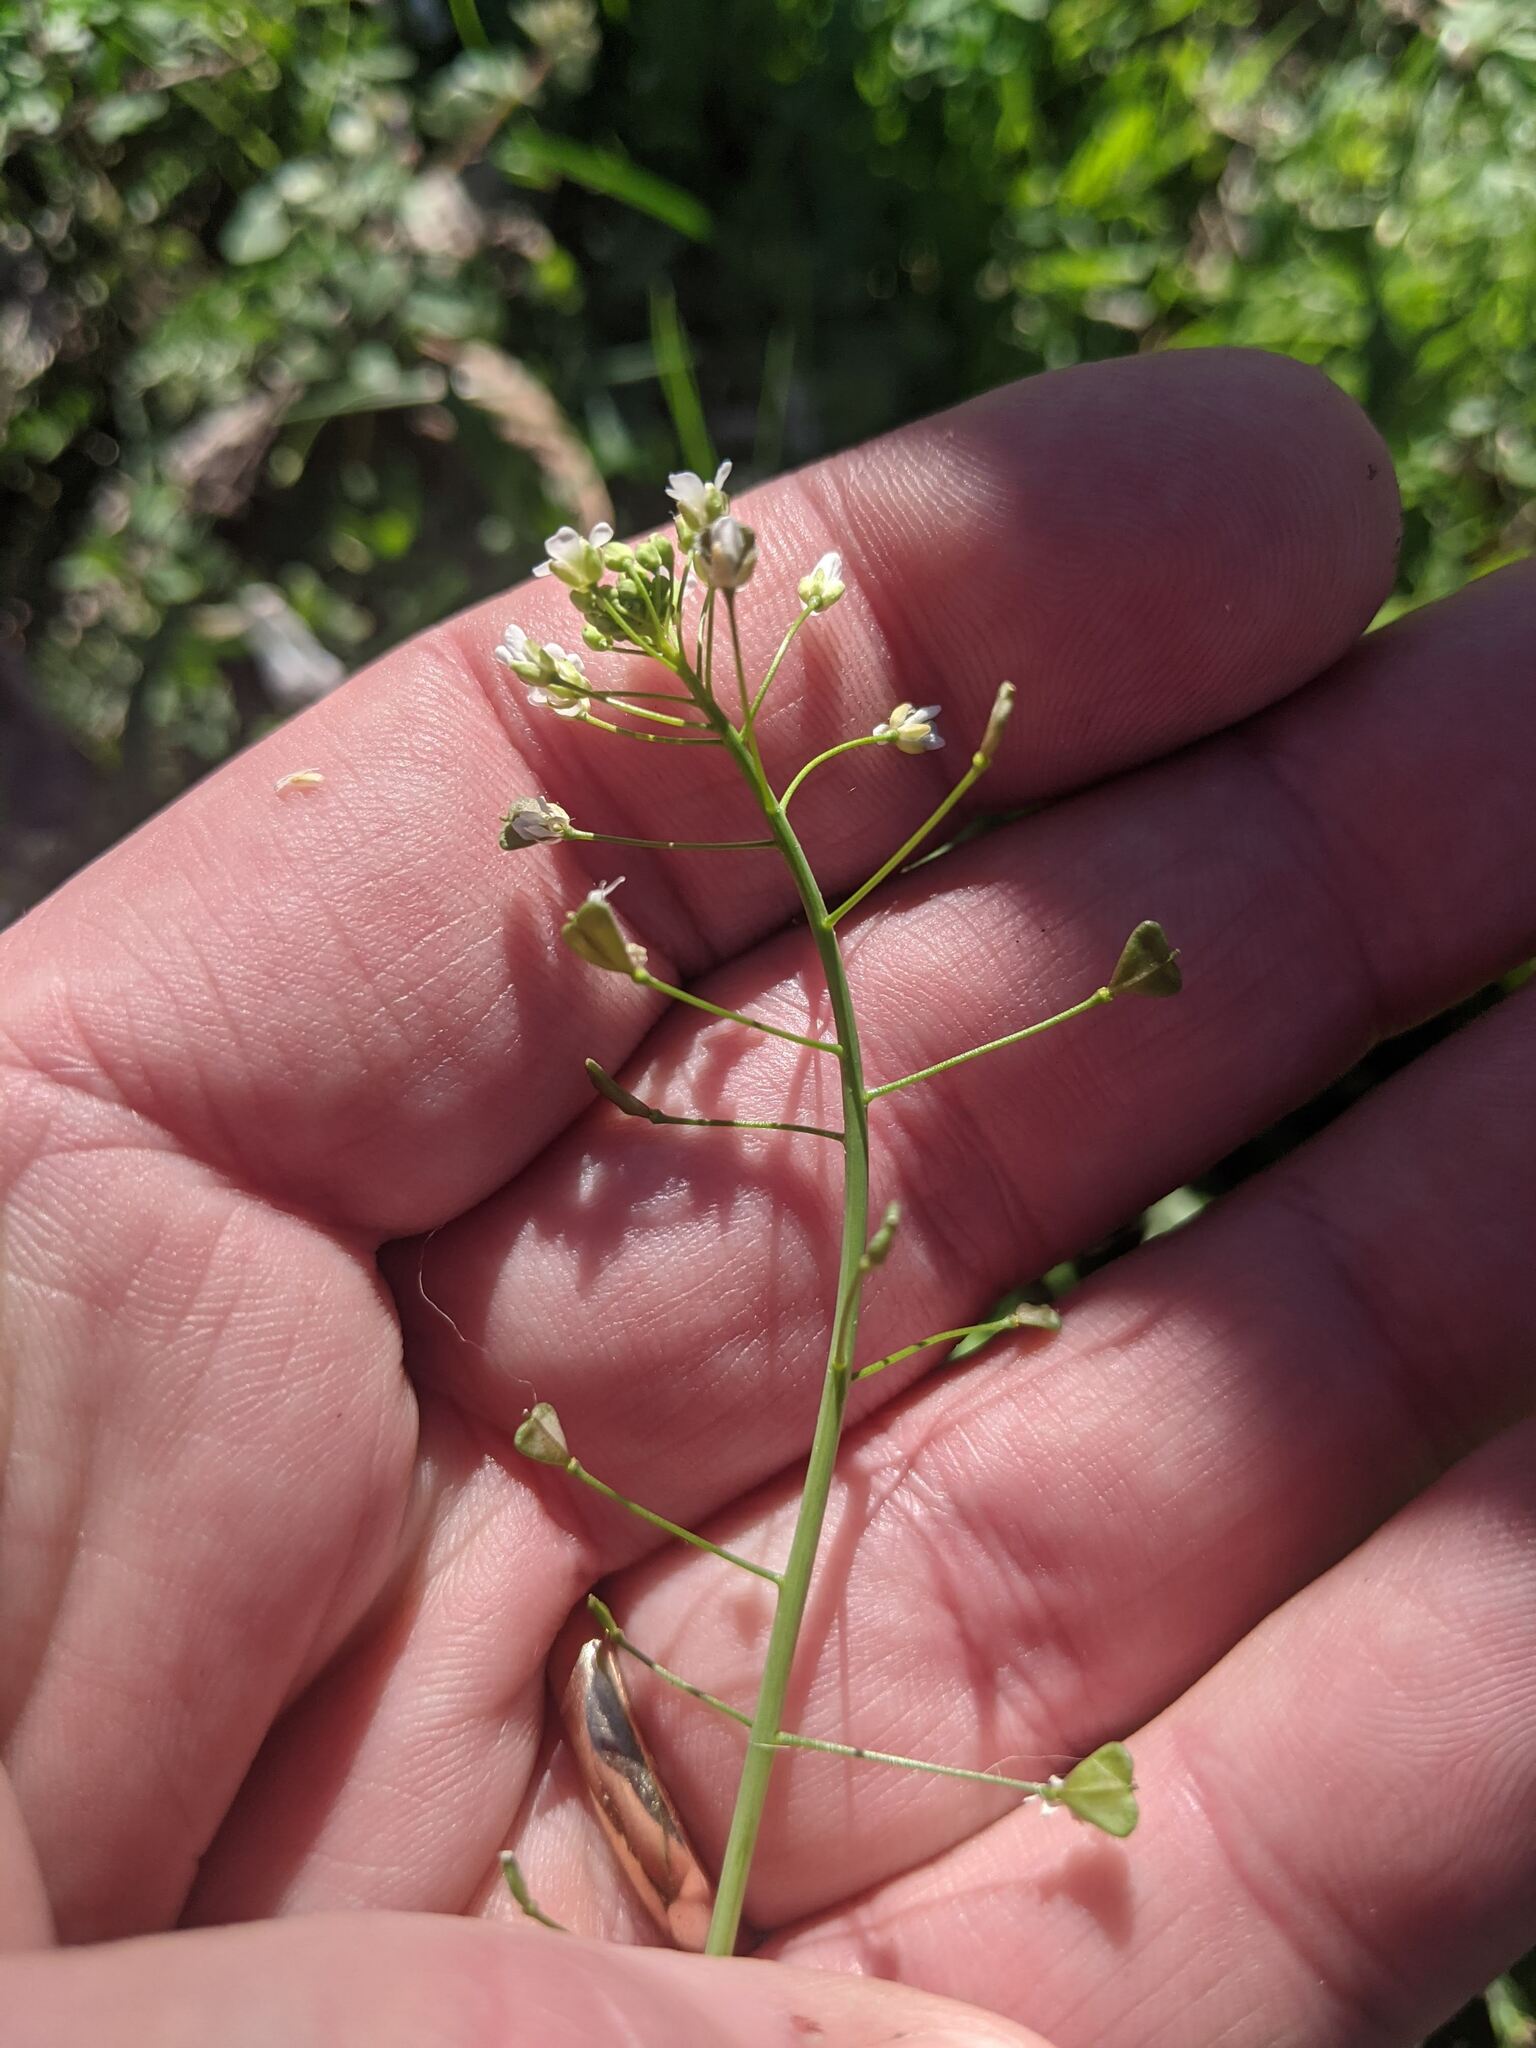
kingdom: Plantae
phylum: Tracheophyta
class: Magnoliopsida
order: Brassicales
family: Brassicaceae
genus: Capsella
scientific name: Capsella bursa-pastoris
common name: Shepherd's purse
